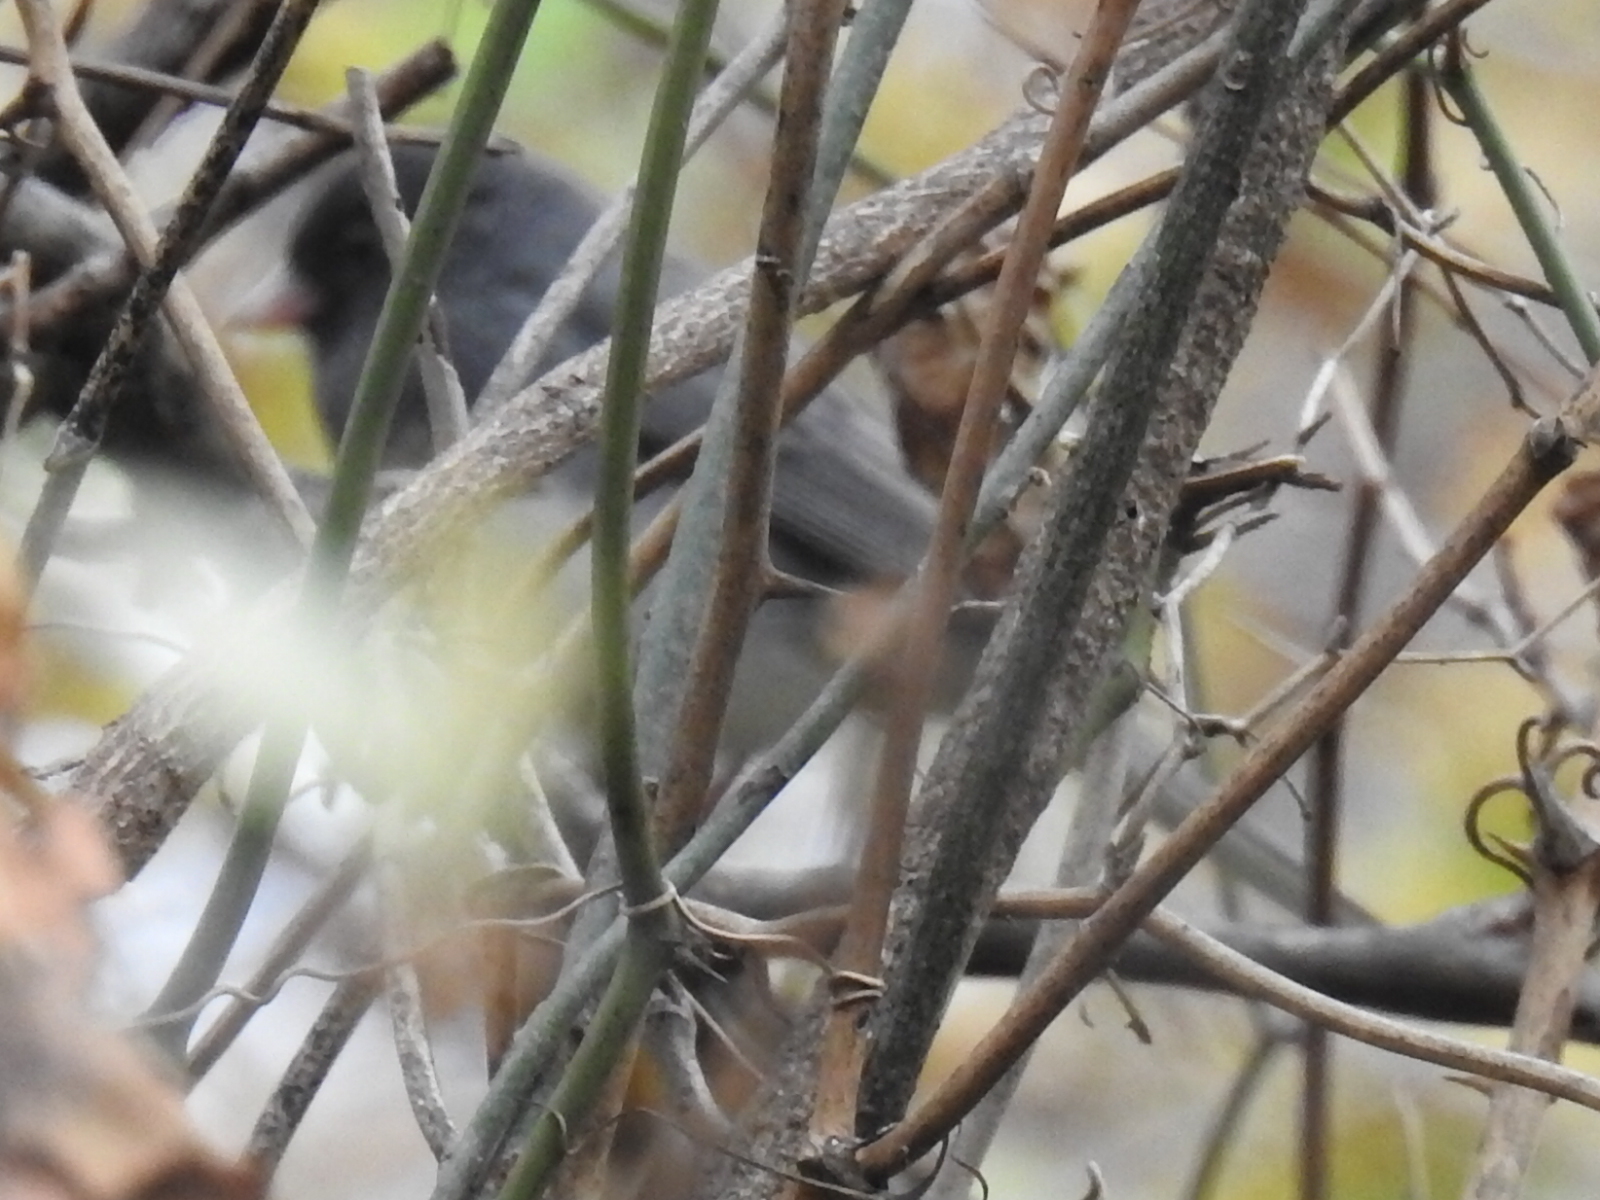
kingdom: Animalia
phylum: Chordata
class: Aves
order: Passeriformes
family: Passerellidae
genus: Junco
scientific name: Junco hyemalis
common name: Dark-eyed junco
